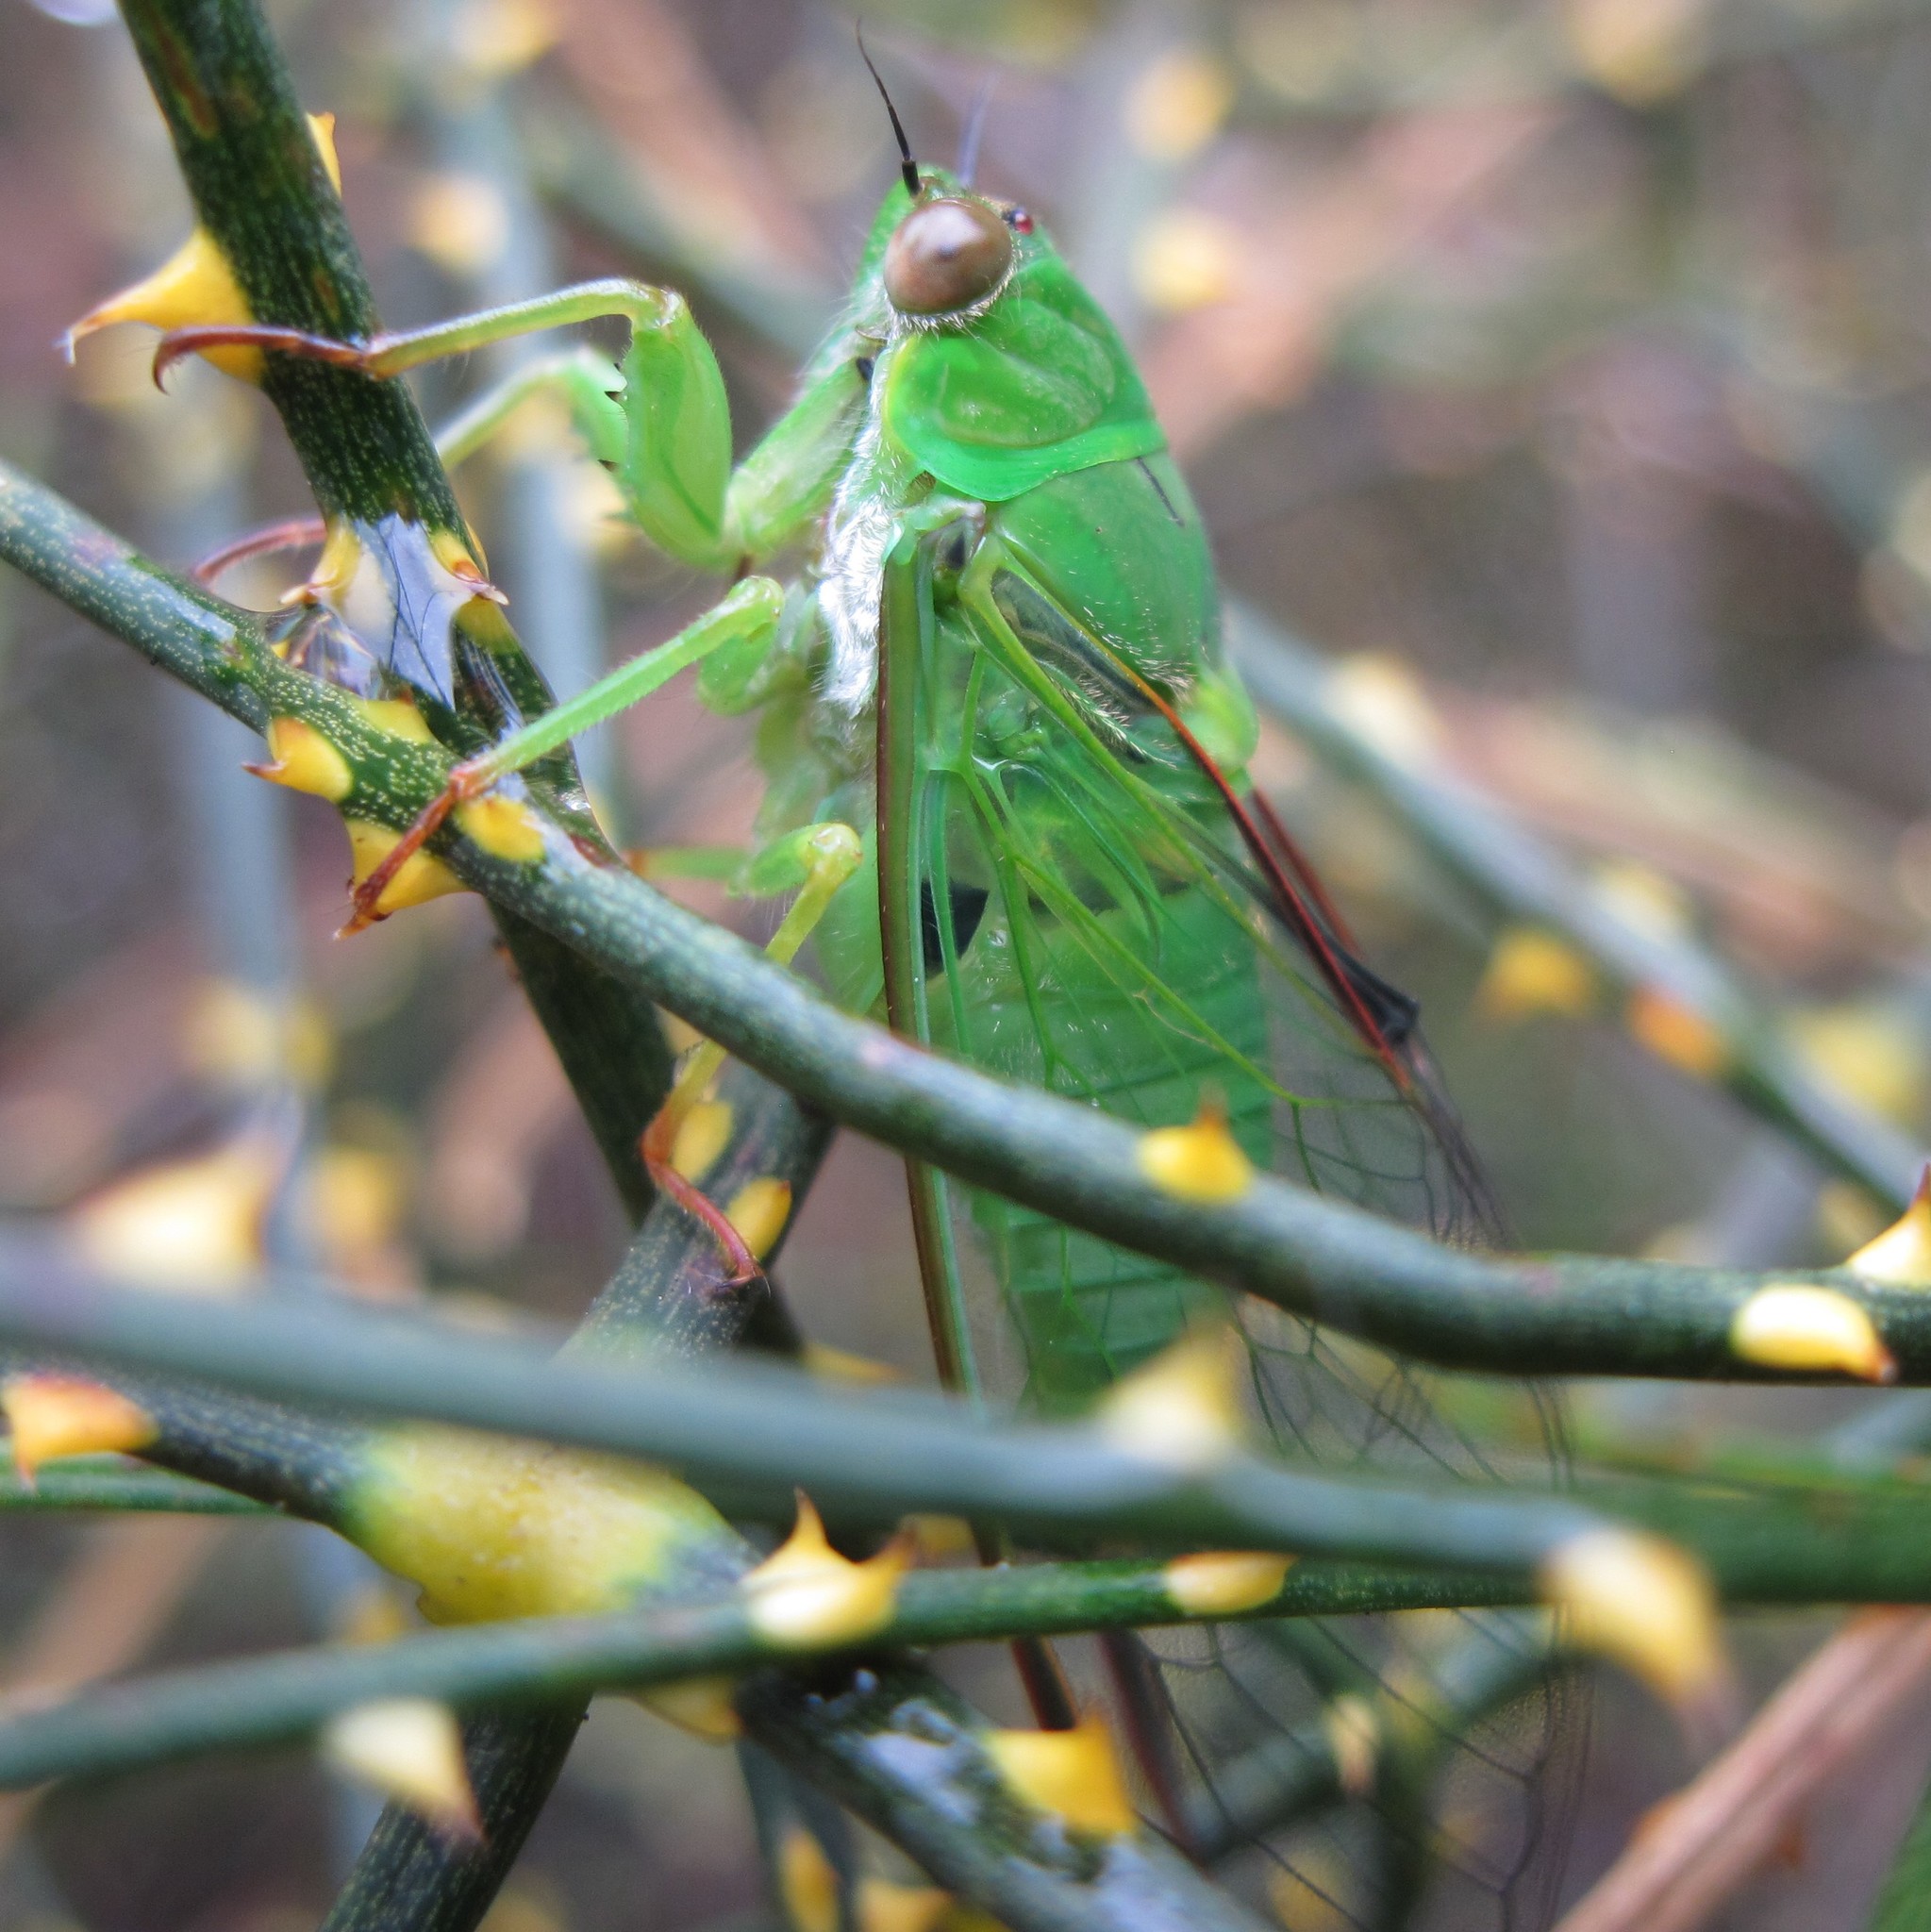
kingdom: Animalia
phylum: Arthropoda
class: Insecta
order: Hemiptera
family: Cicadidae
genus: Kikihia
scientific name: Kikihia ochrina
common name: April green cicada
